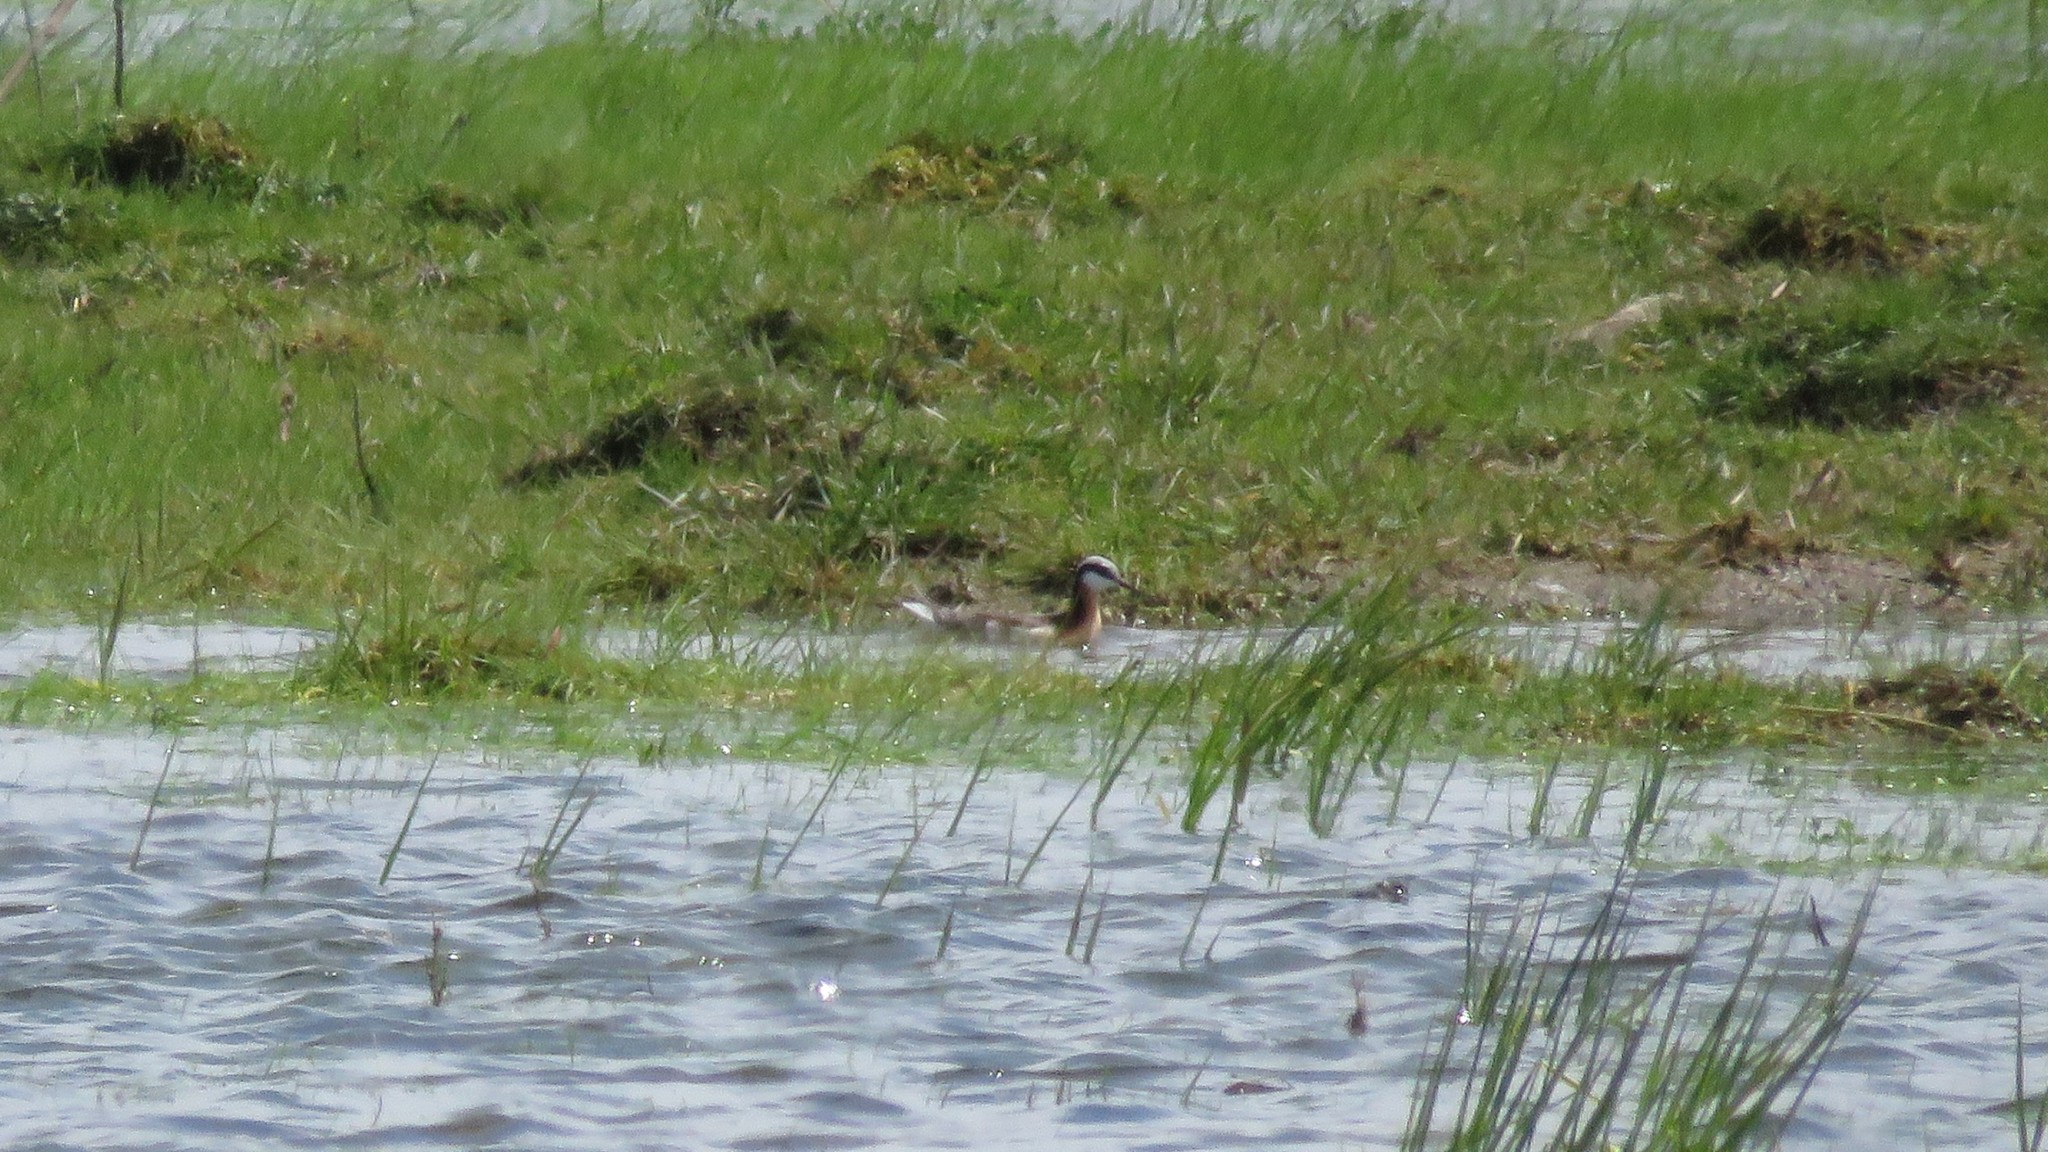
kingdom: Animalia
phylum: Chordata
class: Aves
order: Charadriiformes
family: Scolopacidae
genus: Phalaropus
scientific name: Phalaropus tricolor
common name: Wilson's phalarope
